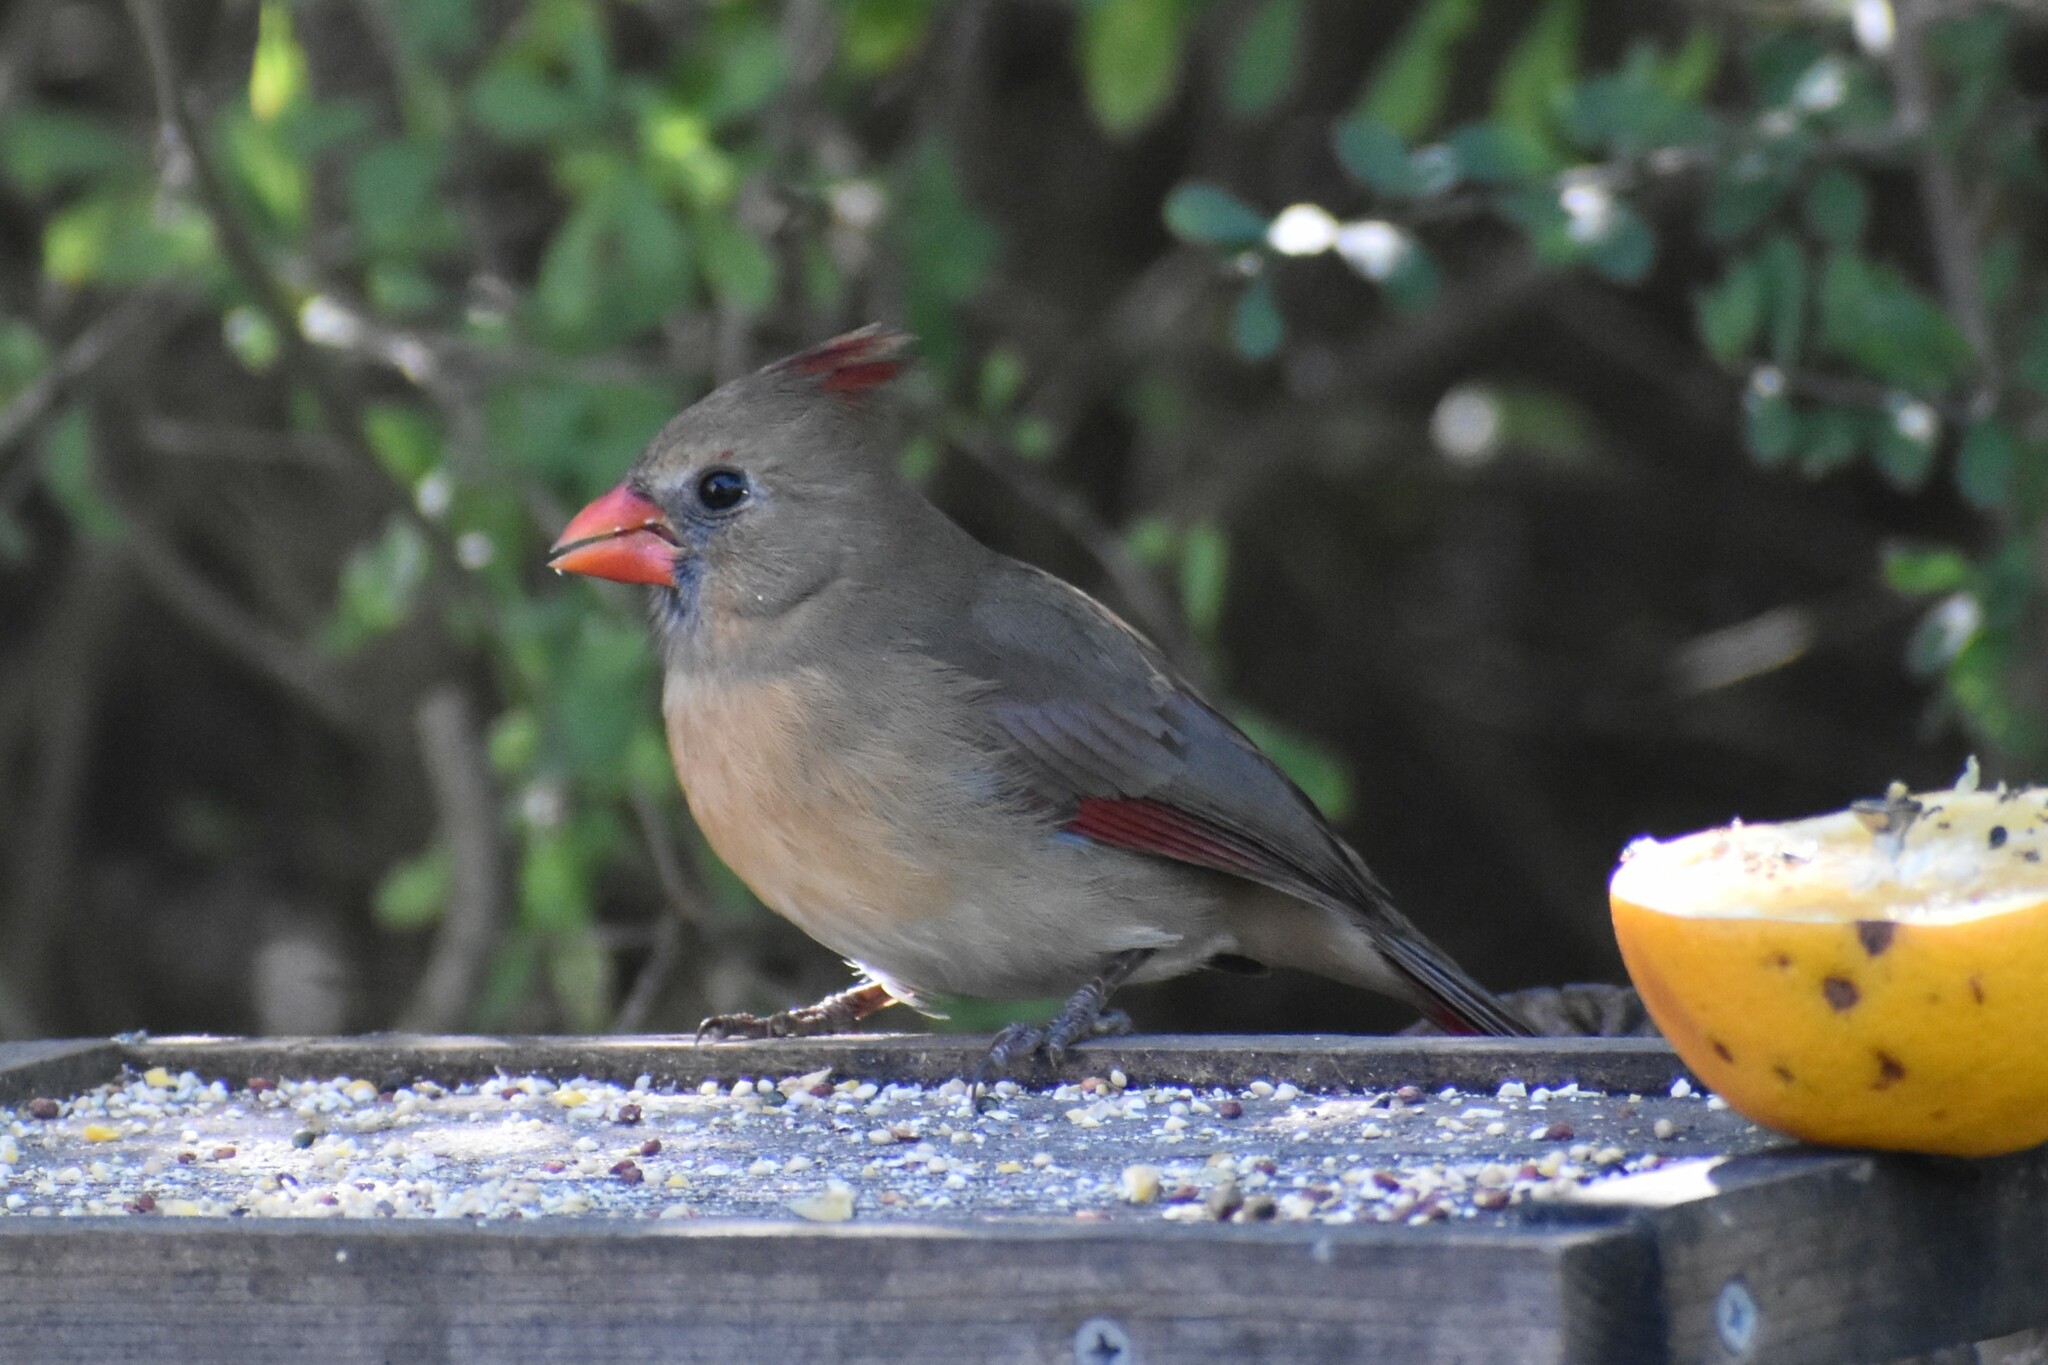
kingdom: Animalia
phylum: Chordata
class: Aves
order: Passeriformes
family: Cardinalidae
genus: Cardinalis
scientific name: Cardinalis cardinalis
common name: Northern cardinal
